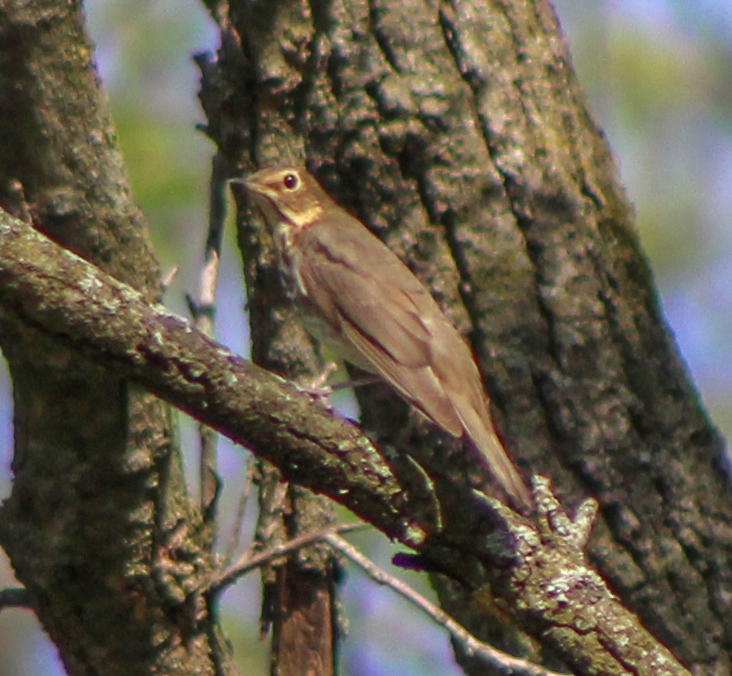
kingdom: Animalia
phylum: Chordata
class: Aves
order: Passeriformes
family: Turdidae
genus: Catharus
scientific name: Catharus ustulatus
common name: Swainson's thrush
